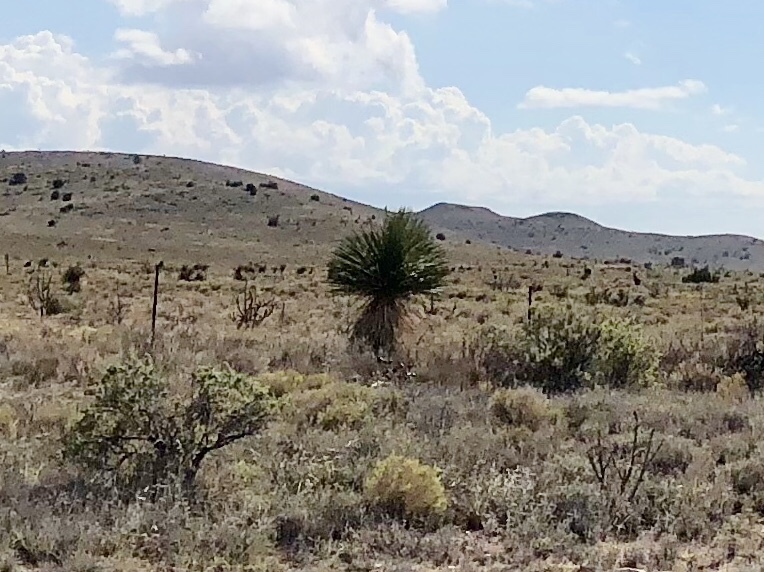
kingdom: Plantae
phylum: Tracheophyta
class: Liliopsida
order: Asparagales
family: Asparagaceae
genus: Yucca
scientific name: Yucca elata
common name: Palmella
